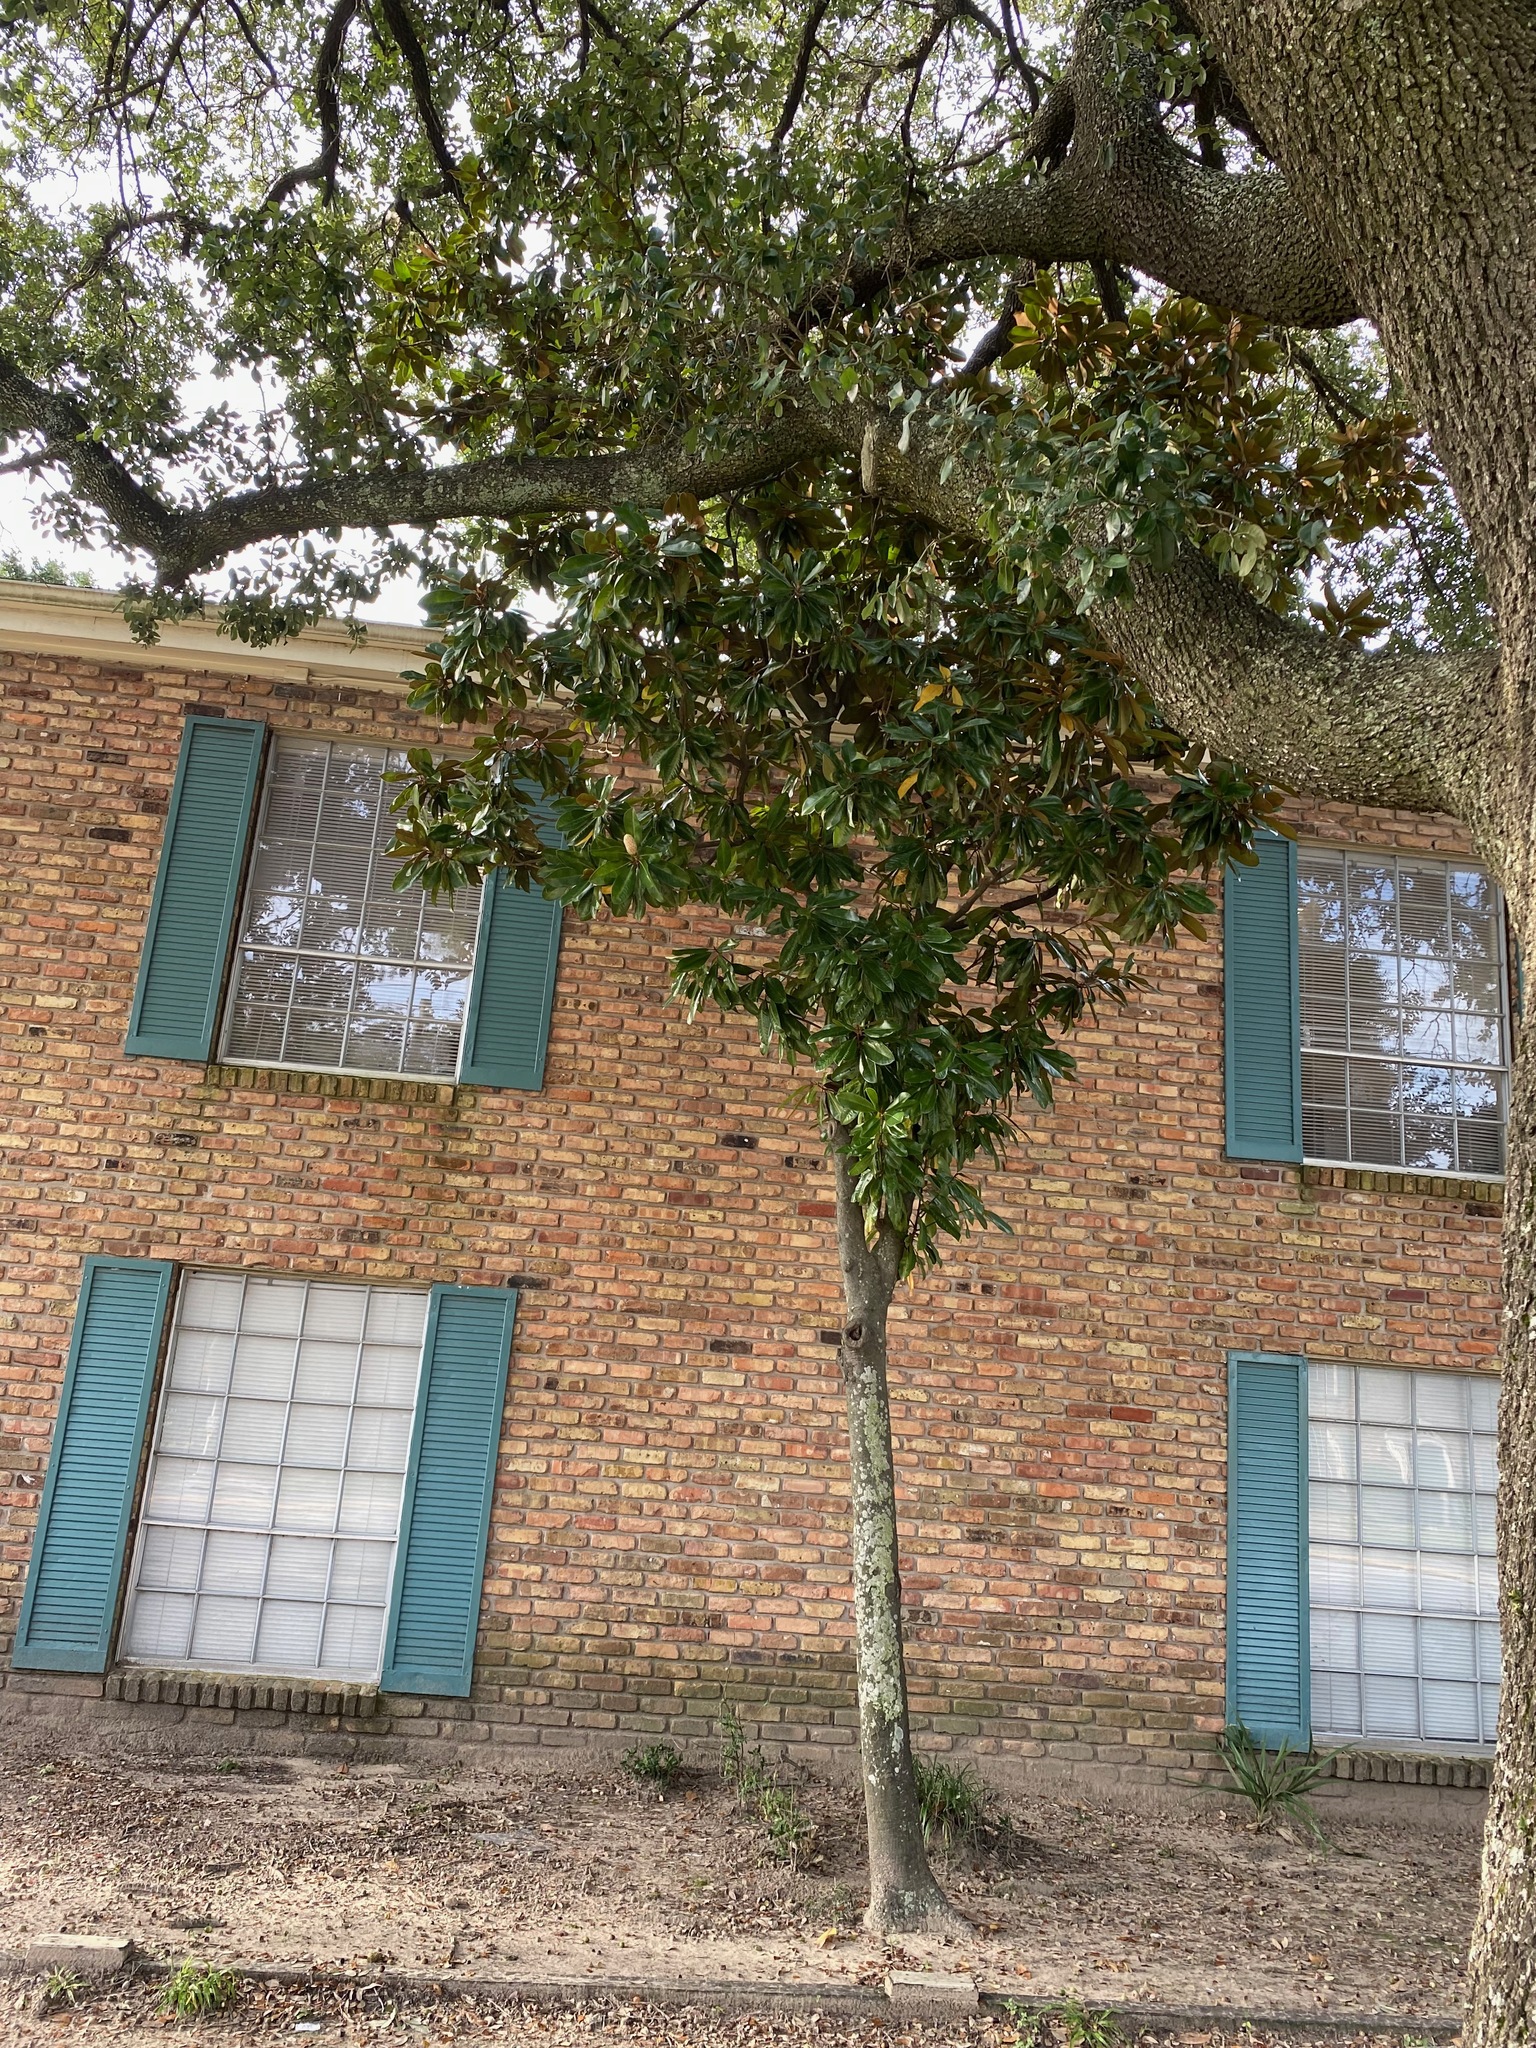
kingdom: Plantae
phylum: Tracheophyta
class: Magnoliopsida
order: Magnoliales
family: Magnoliaceae
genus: Magnolia
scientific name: Magnolia grandiflora
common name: Southern magnolia
